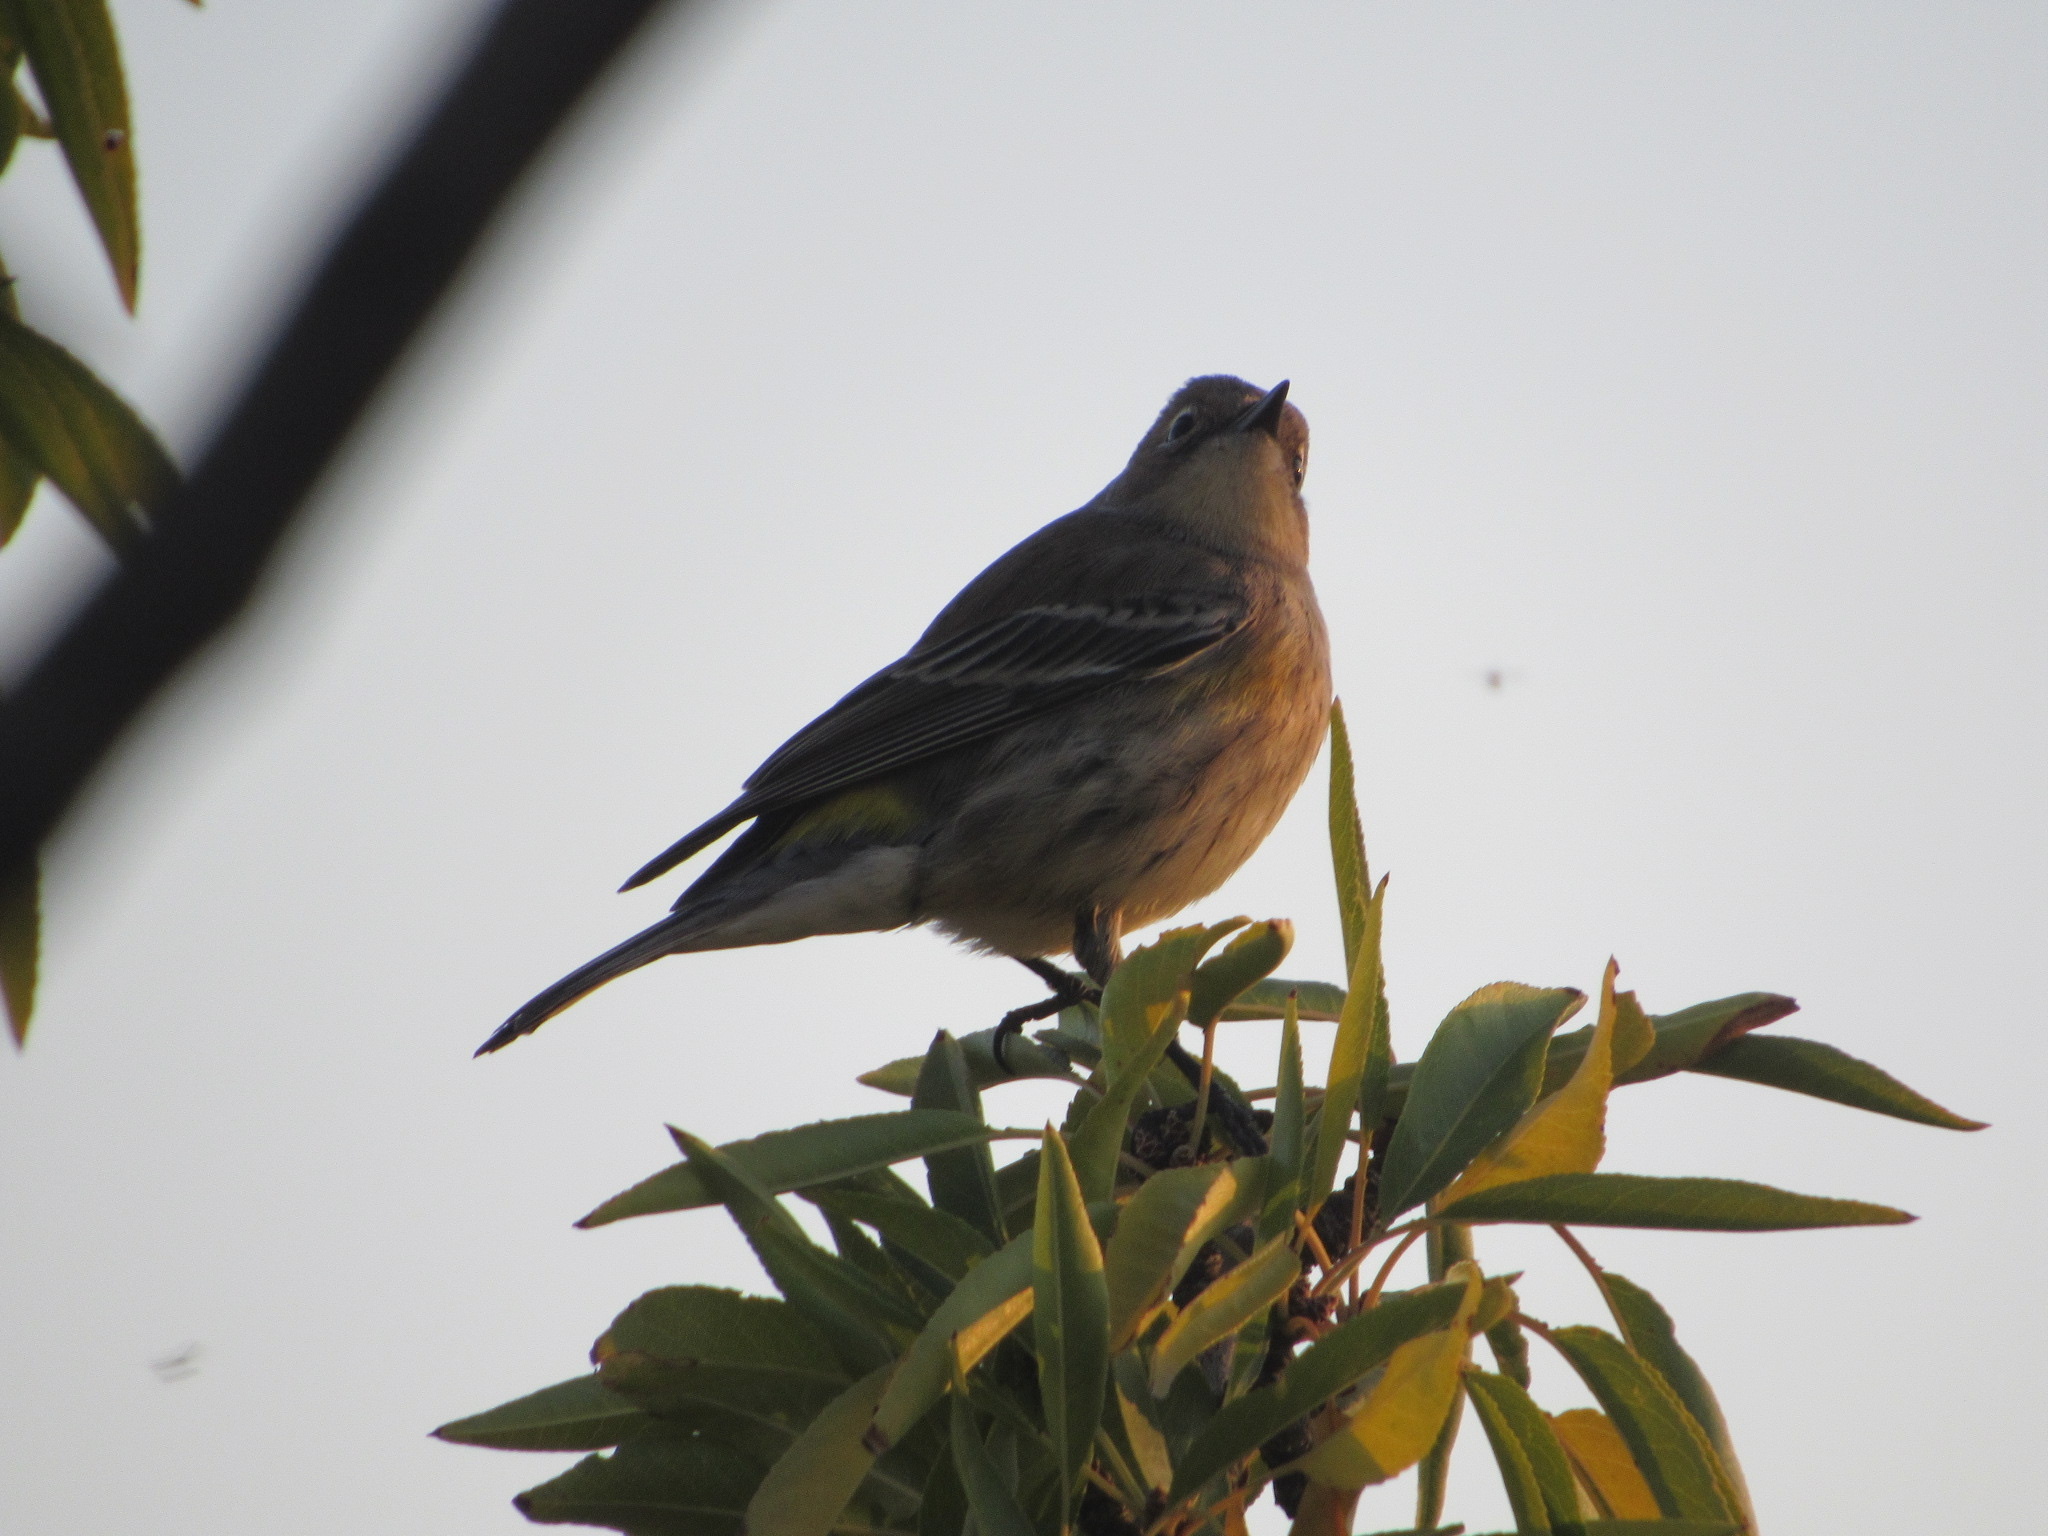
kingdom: Animalia
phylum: Chordata
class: Aves
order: Passeriformes
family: Parulidae
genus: Setophaga
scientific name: Setophaga coronata
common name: Myrtle warbler
